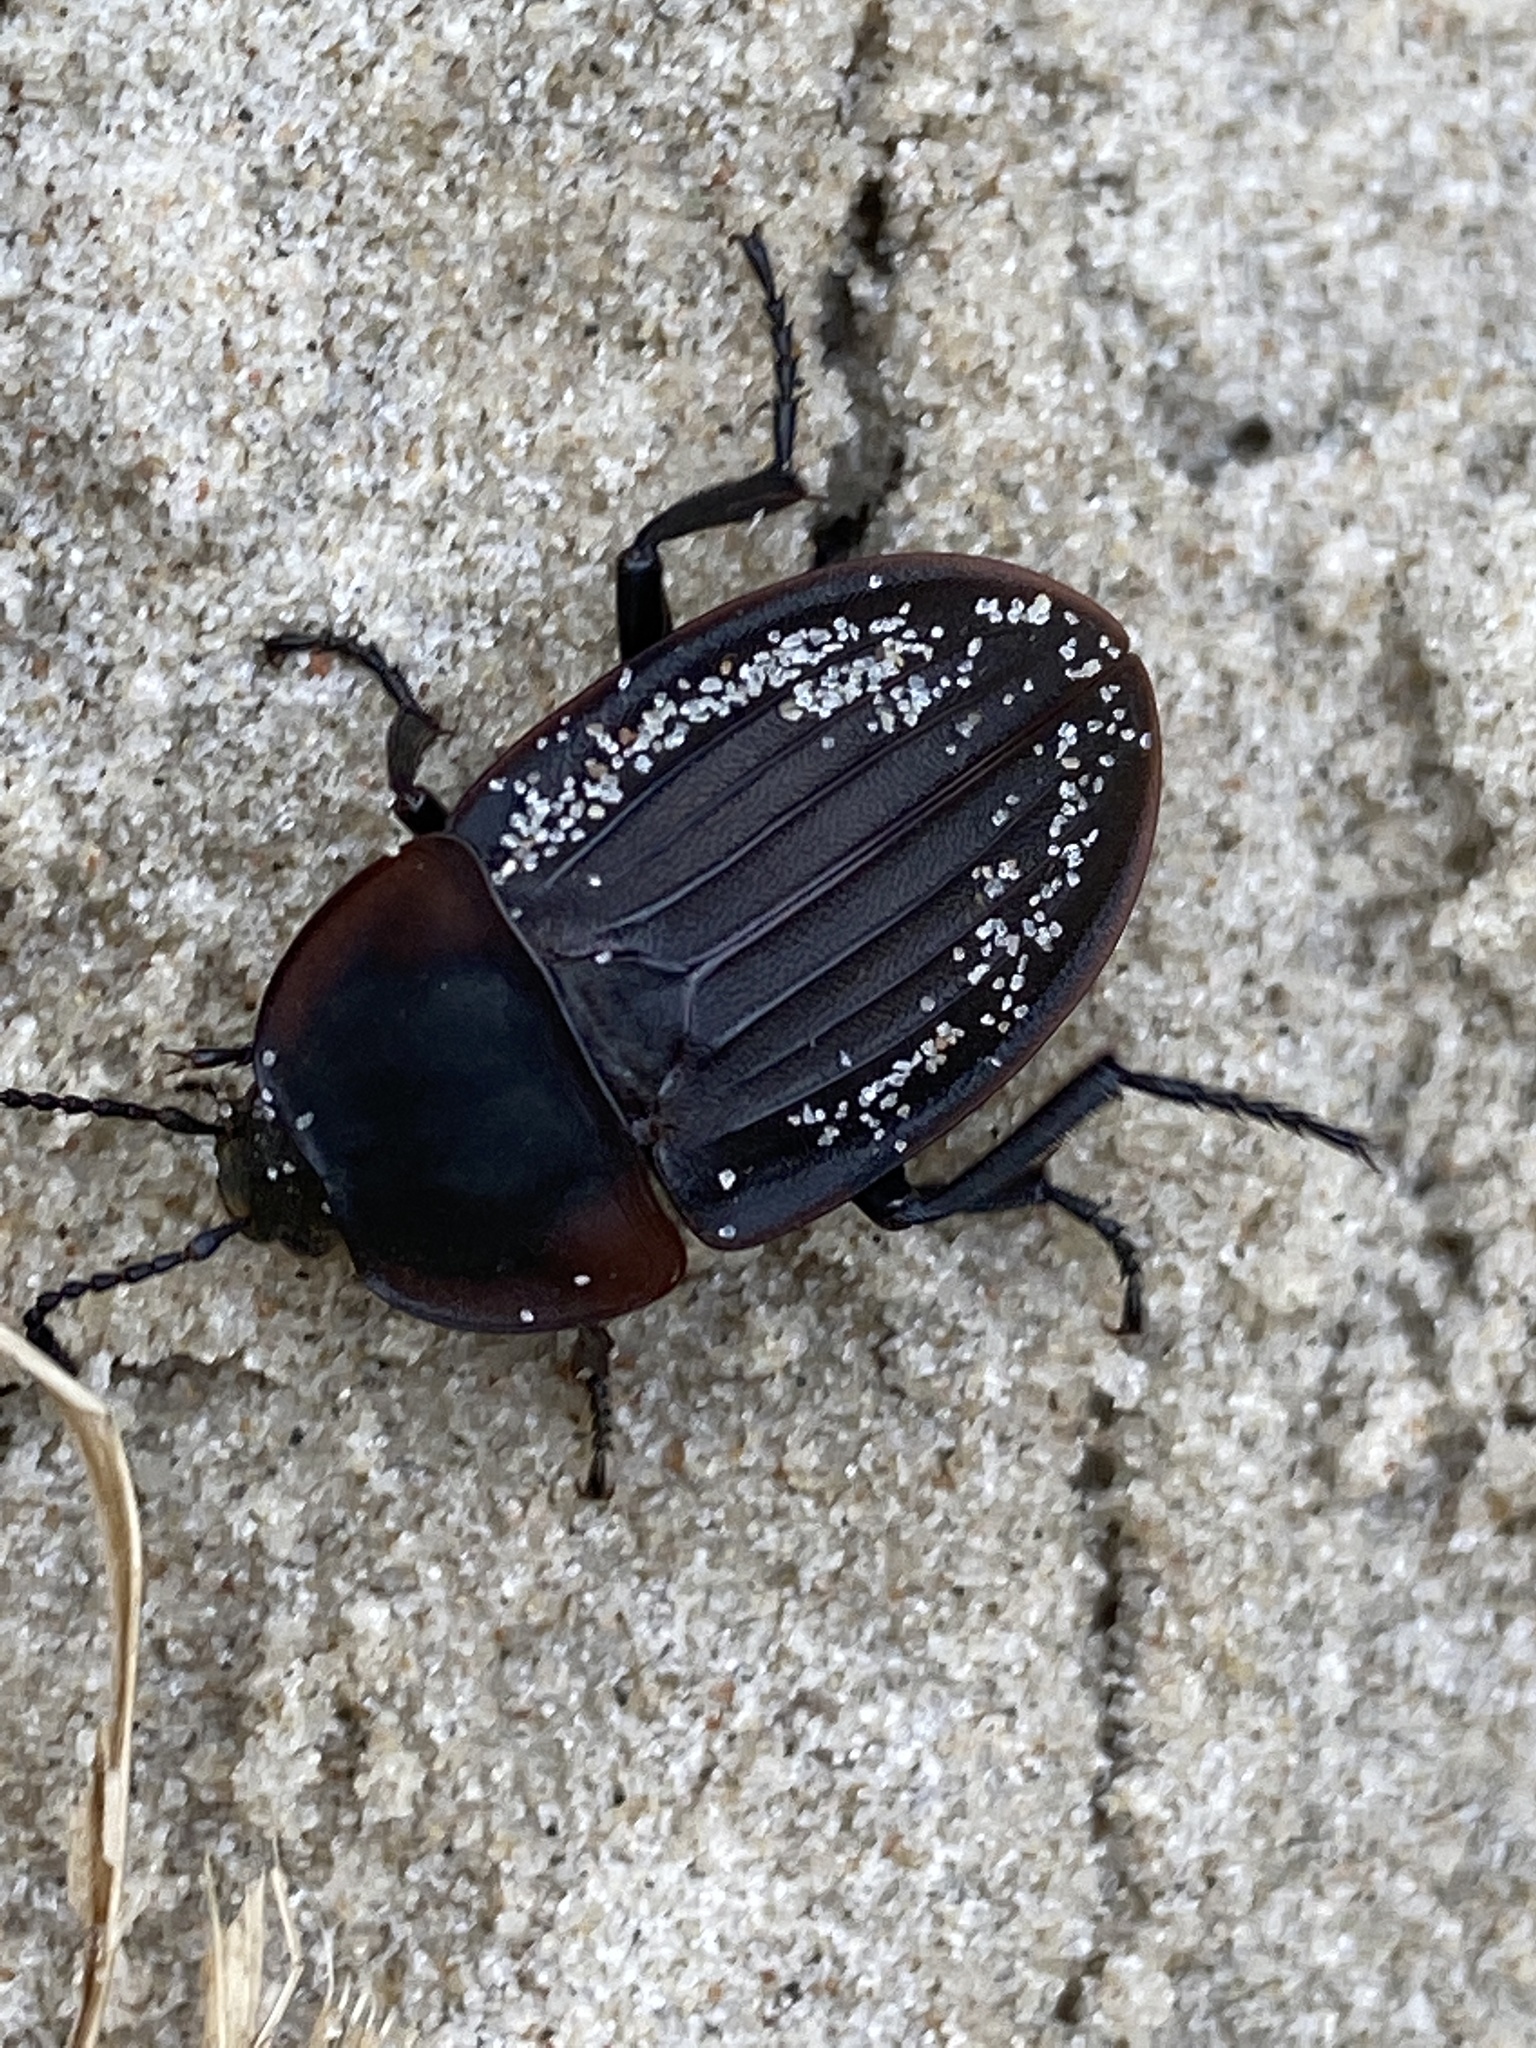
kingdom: Animalia
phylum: Arthropoda
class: Insecta
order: Coleoptera
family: Staphylinidae
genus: Silpha
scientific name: Silpha carinata
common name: Silphid beetle
